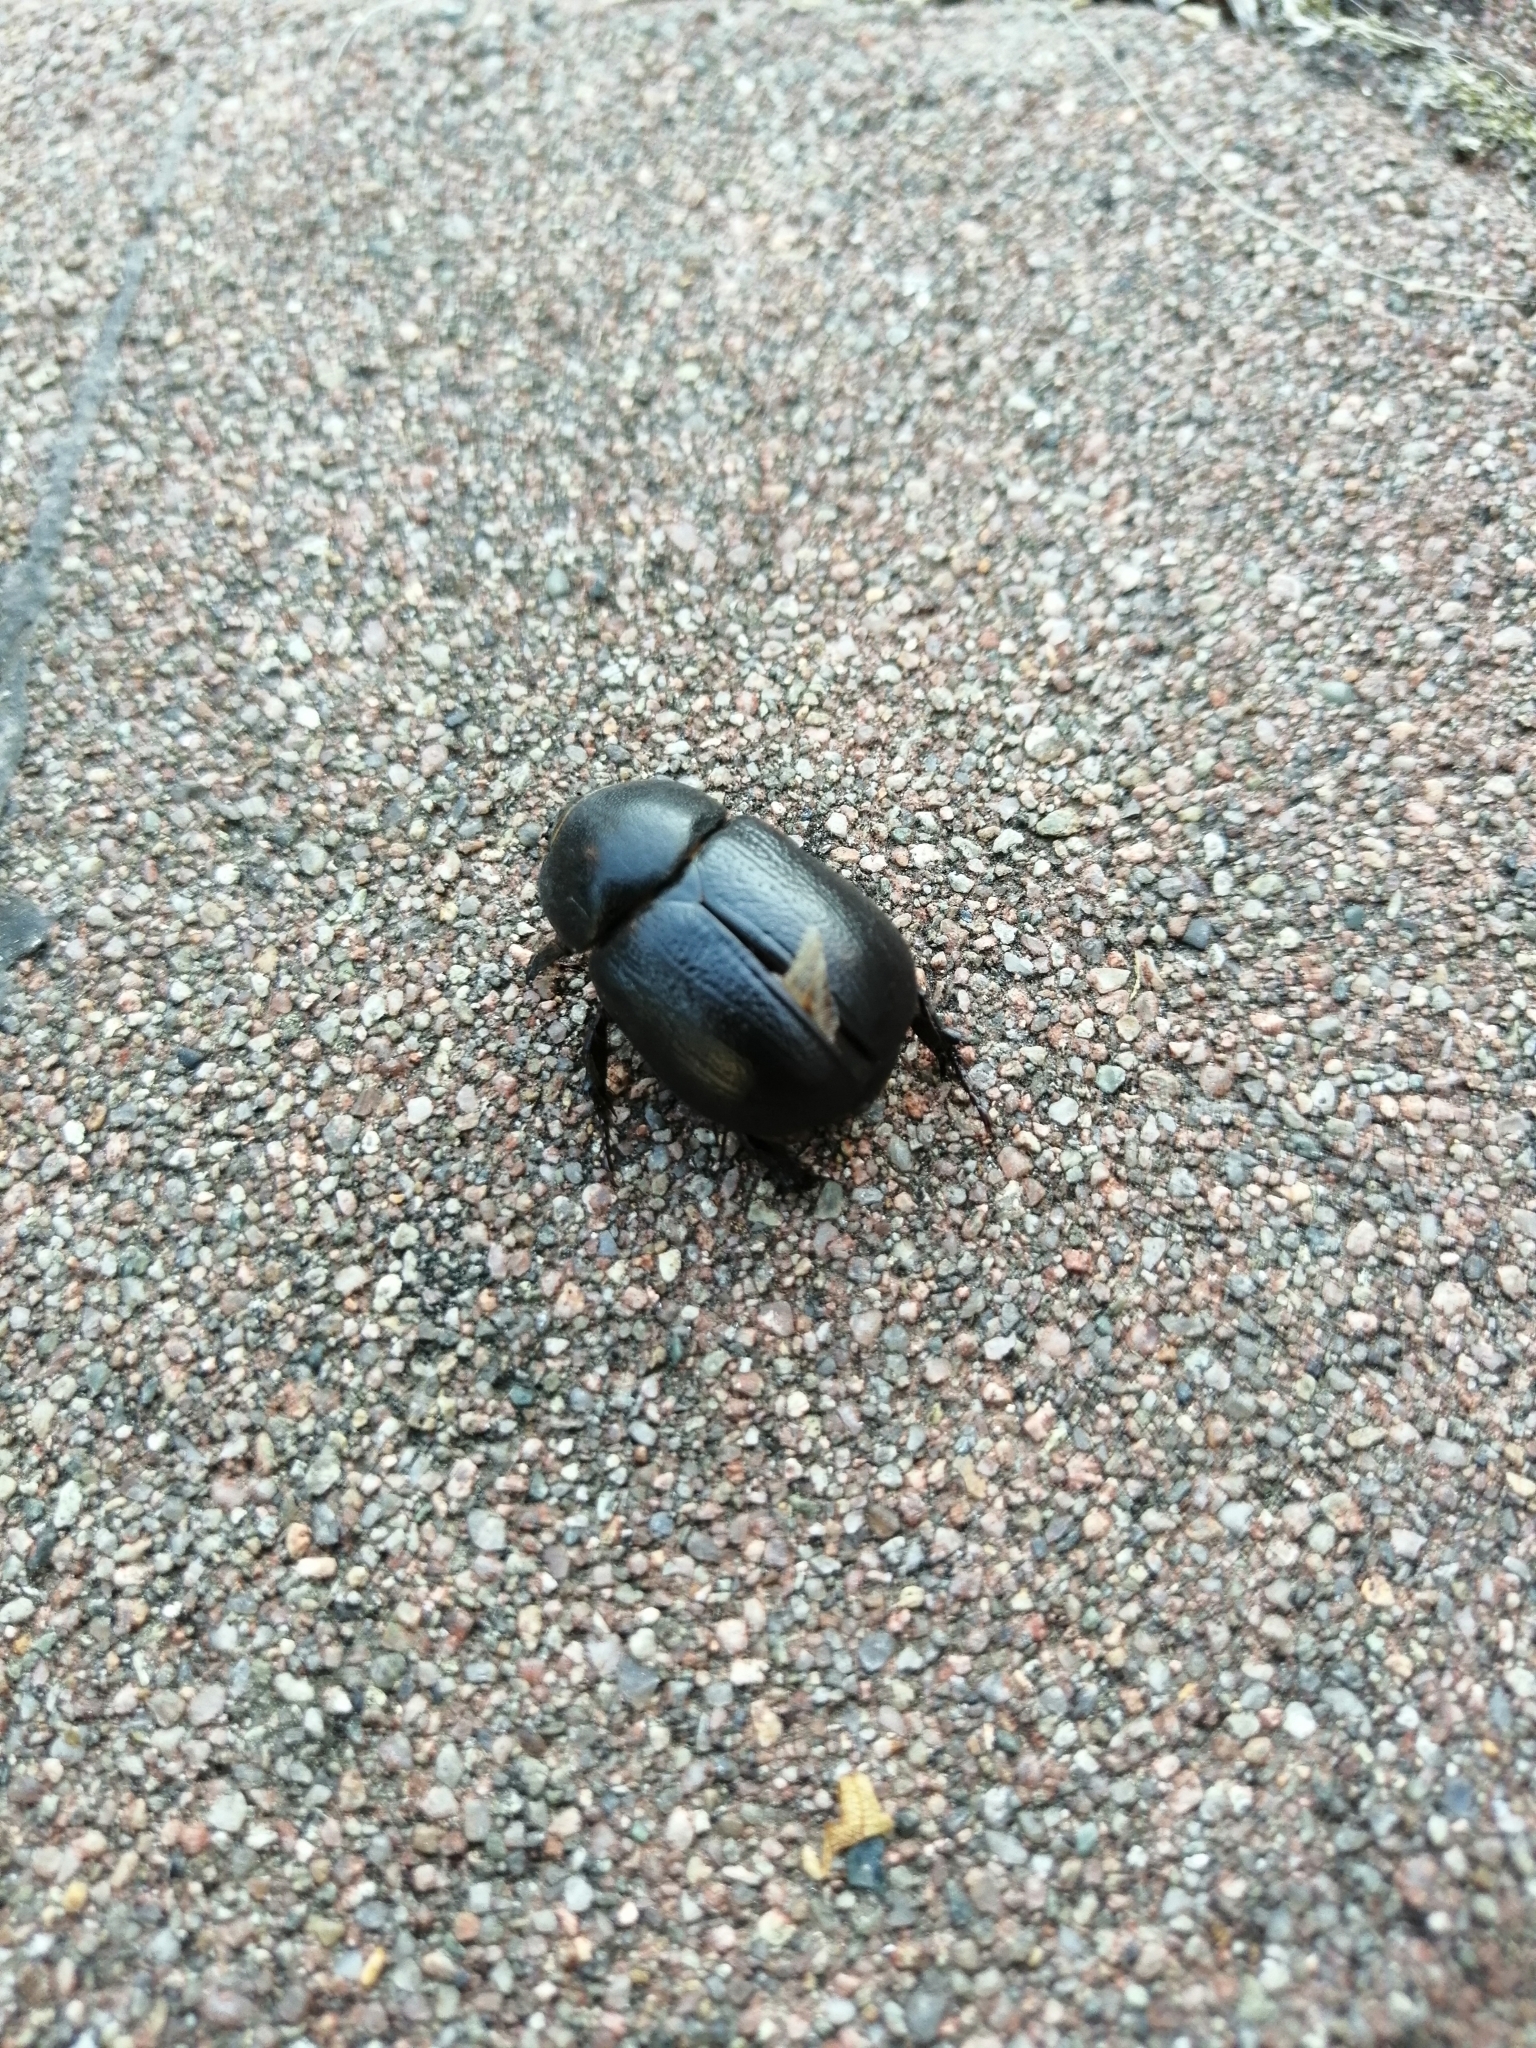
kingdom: Animalia
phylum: Arthropoda
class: Insecta
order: Coleoptera
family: Scarabaeidae
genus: Pentodon
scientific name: Pentodon bidens
